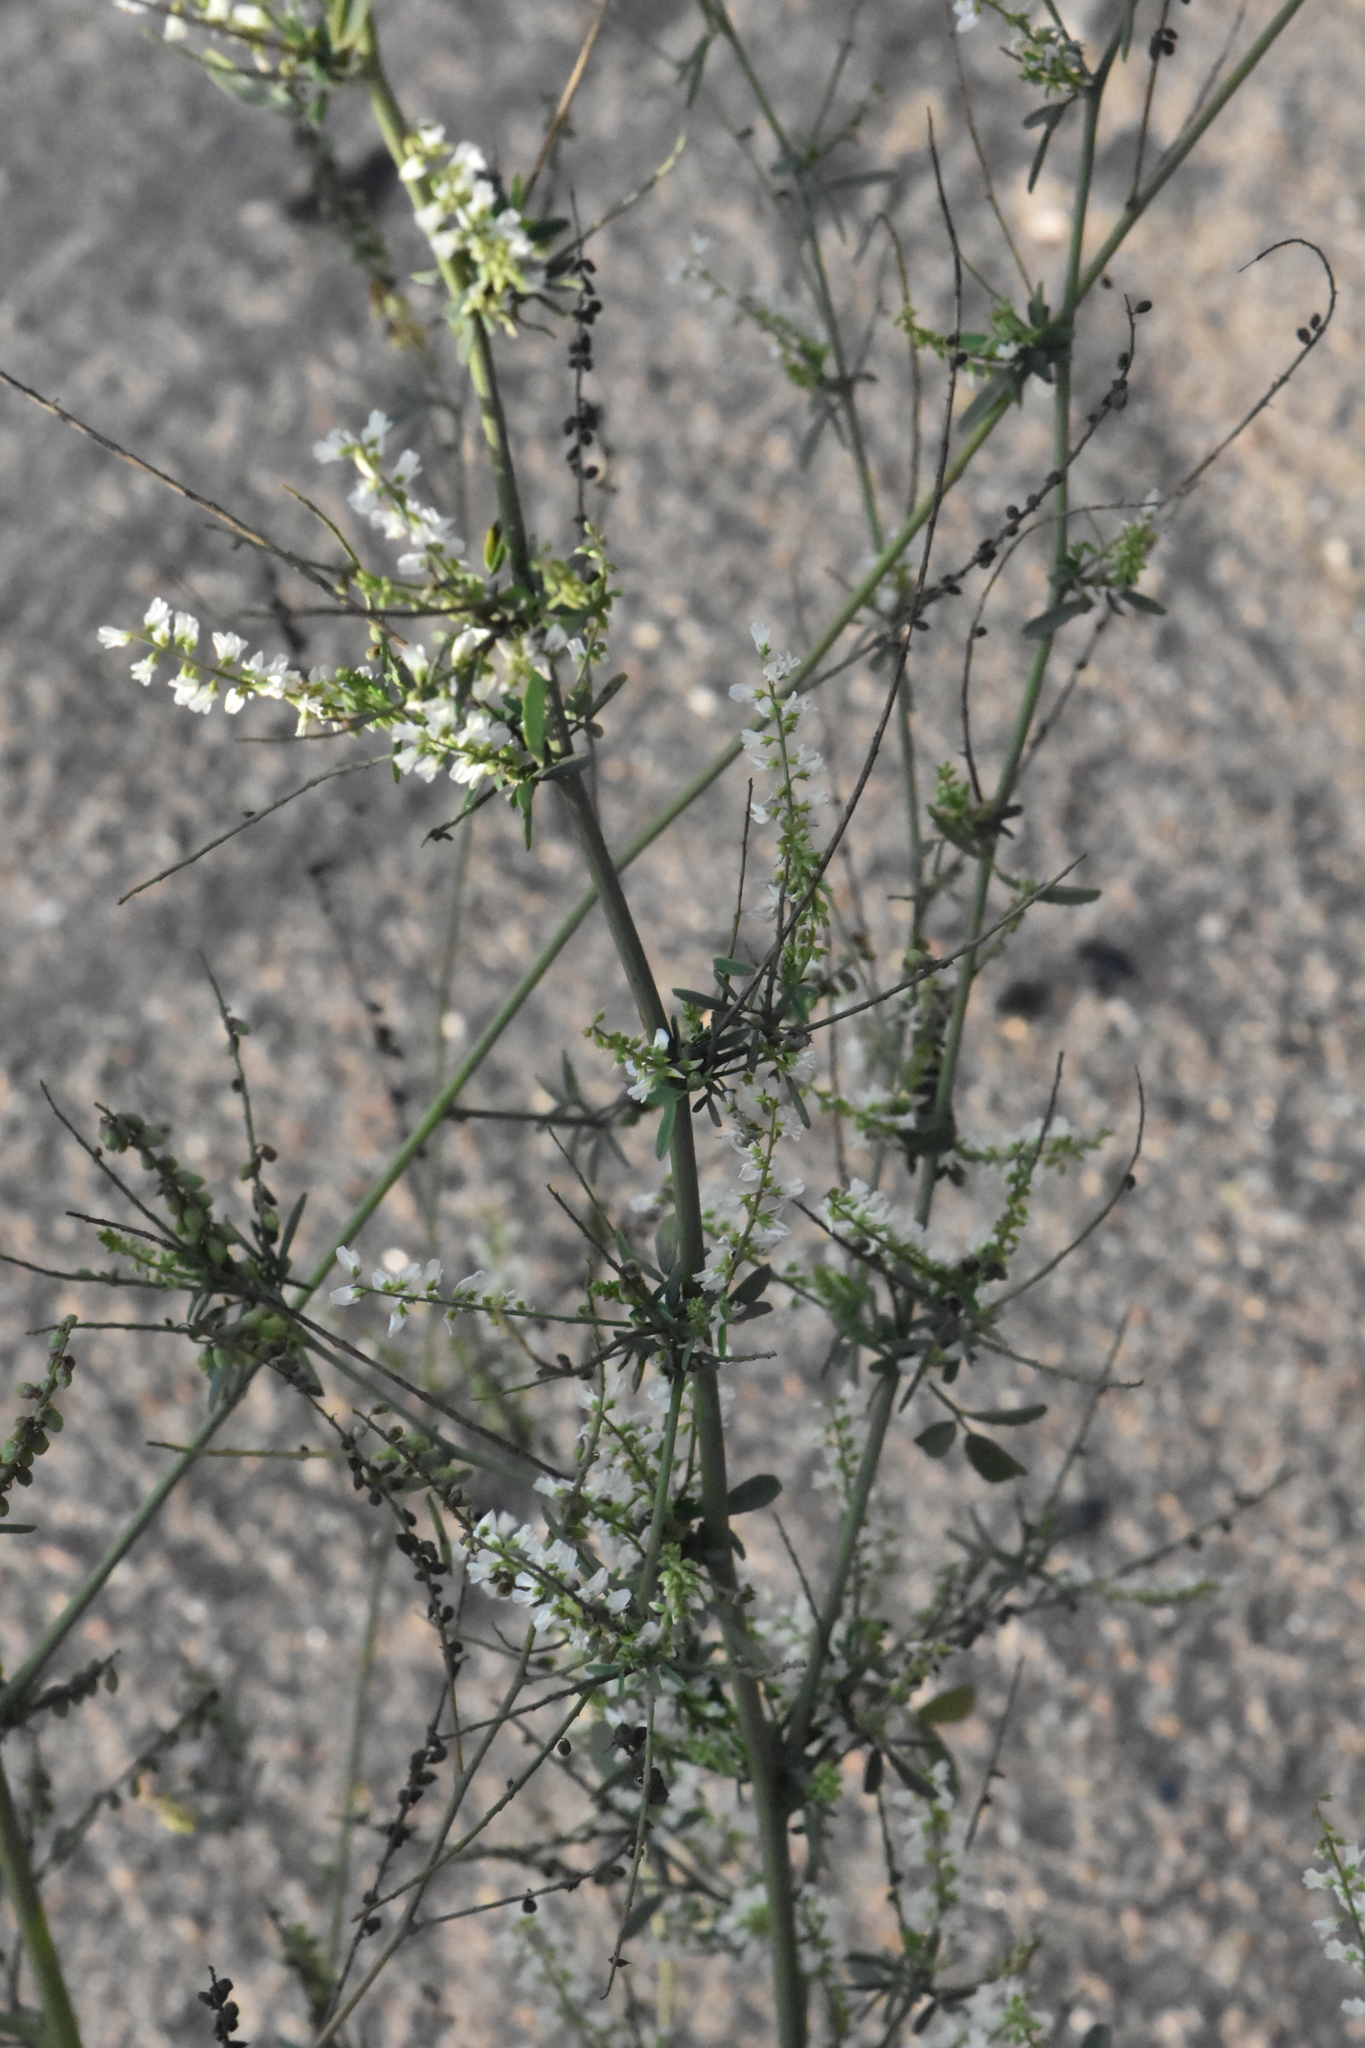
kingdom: Plantae
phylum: Tracheophyta
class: Magnoliopsida
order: Fabales
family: Fabaceae
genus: Melilotus
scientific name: Melilotus albus
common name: White melilot
